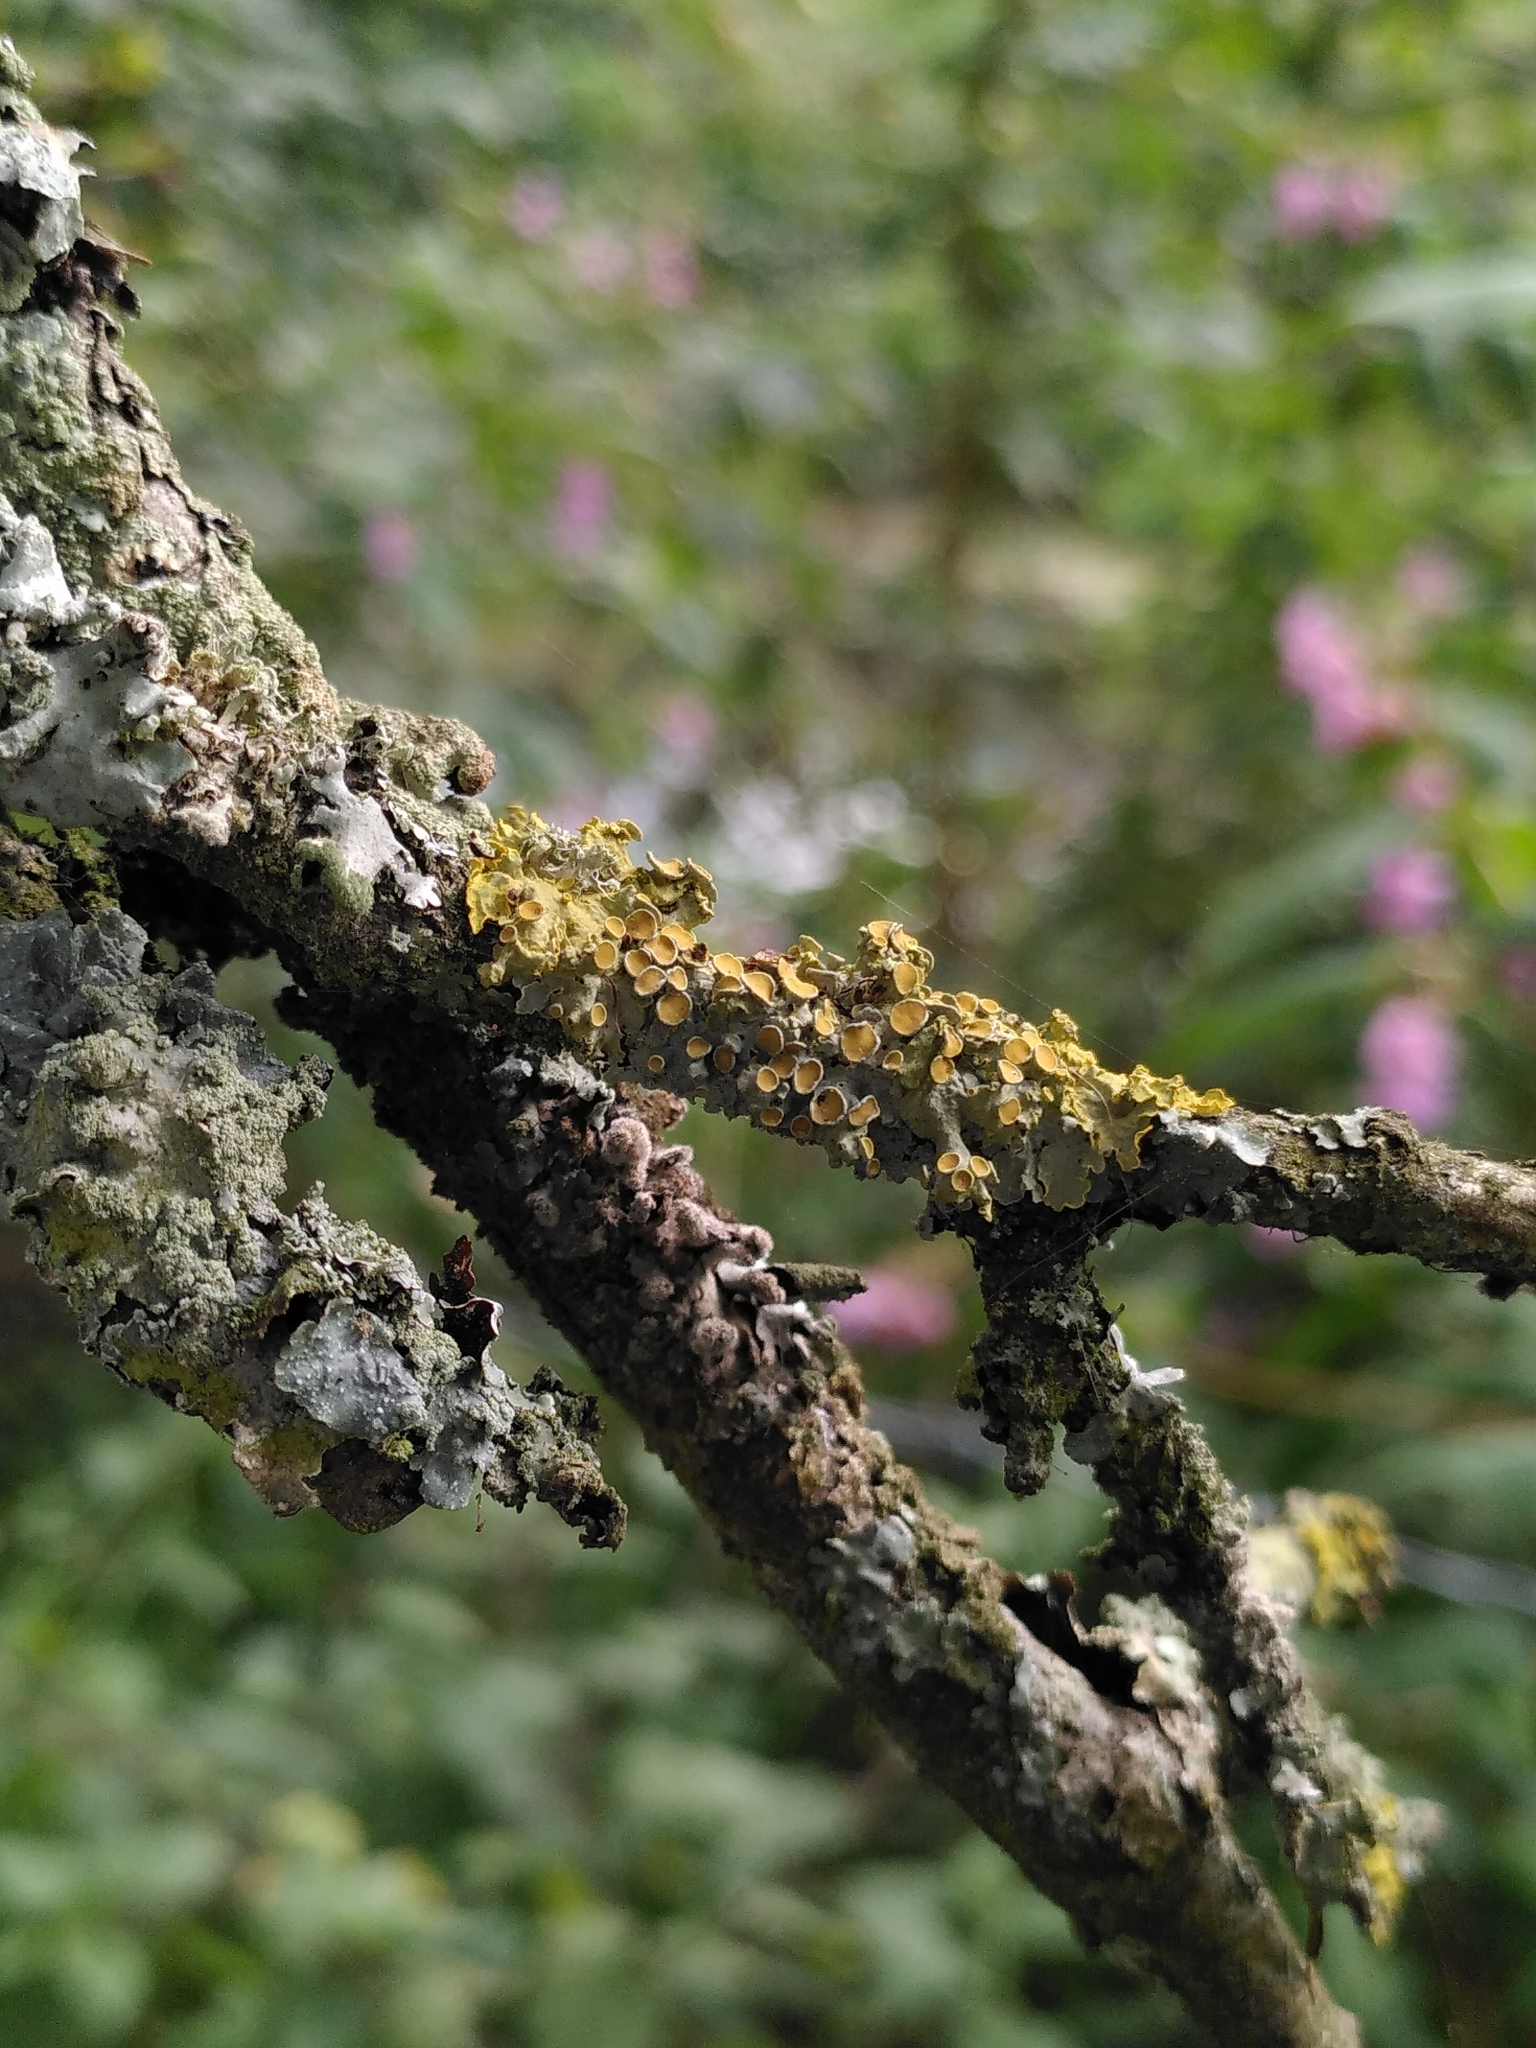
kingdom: Fungi
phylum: Ascomycota
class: Lecanoromycetes
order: Teloschistales
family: Teloschistaceae
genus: Xanthoria
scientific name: Xanthoria parietina
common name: Common orange lichen
